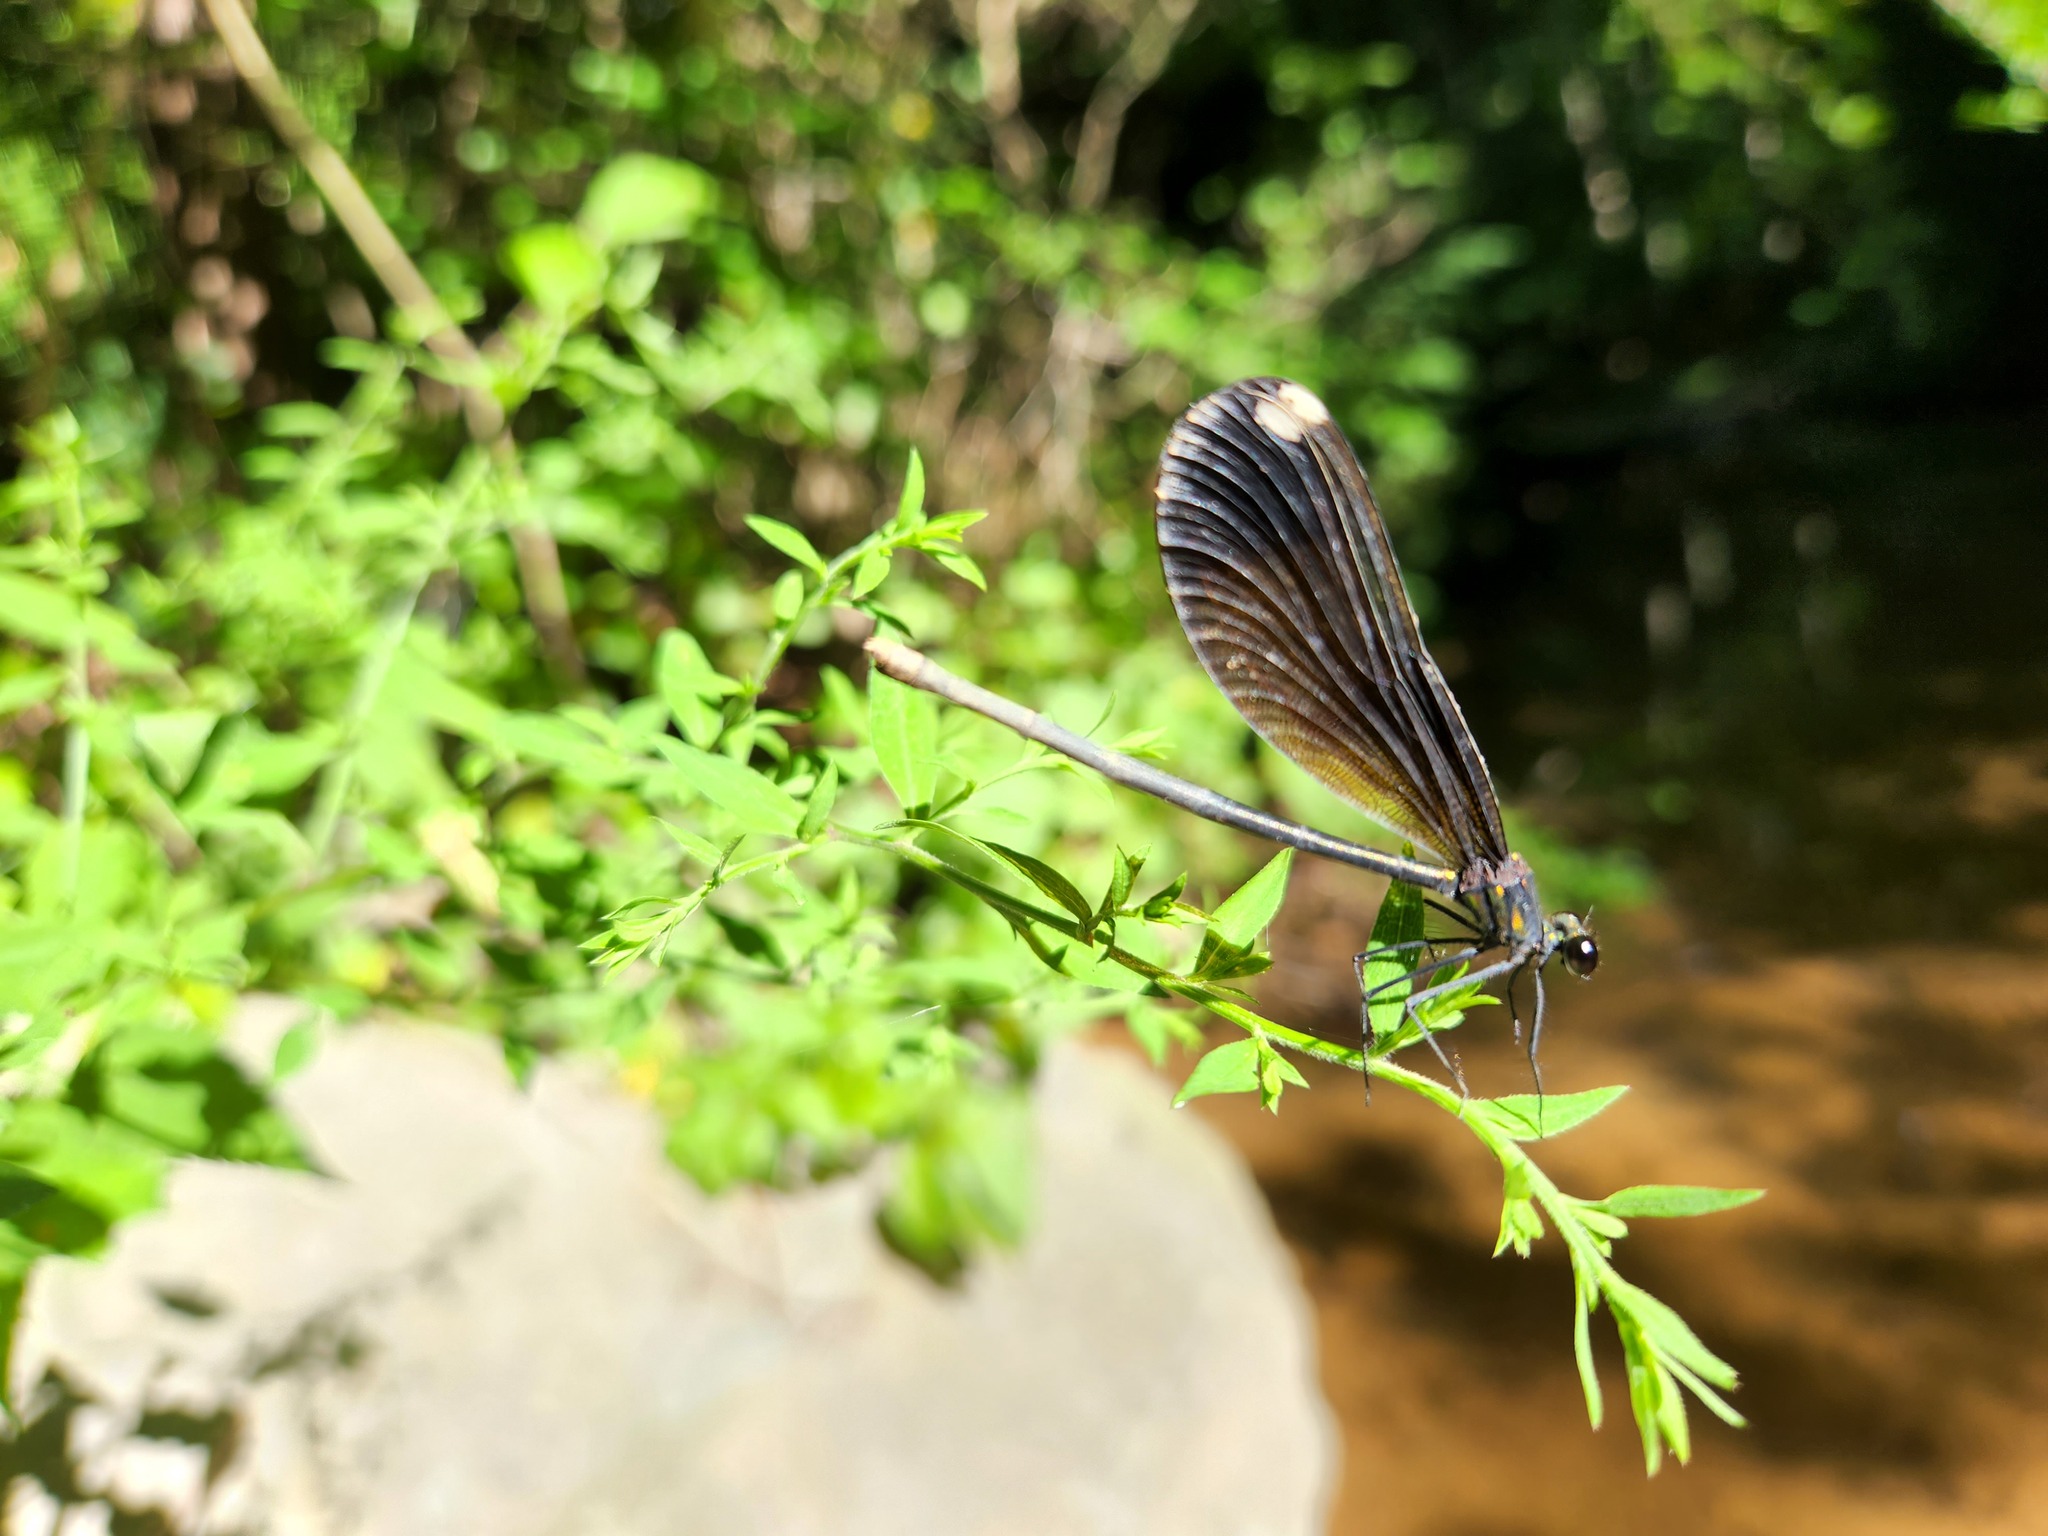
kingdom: Animalia
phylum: Arthropoda
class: Insecta
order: Odonata
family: Calopterygidae
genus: Calopteryx
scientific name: Calopteryx maculata
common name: Ebony jewelwing
